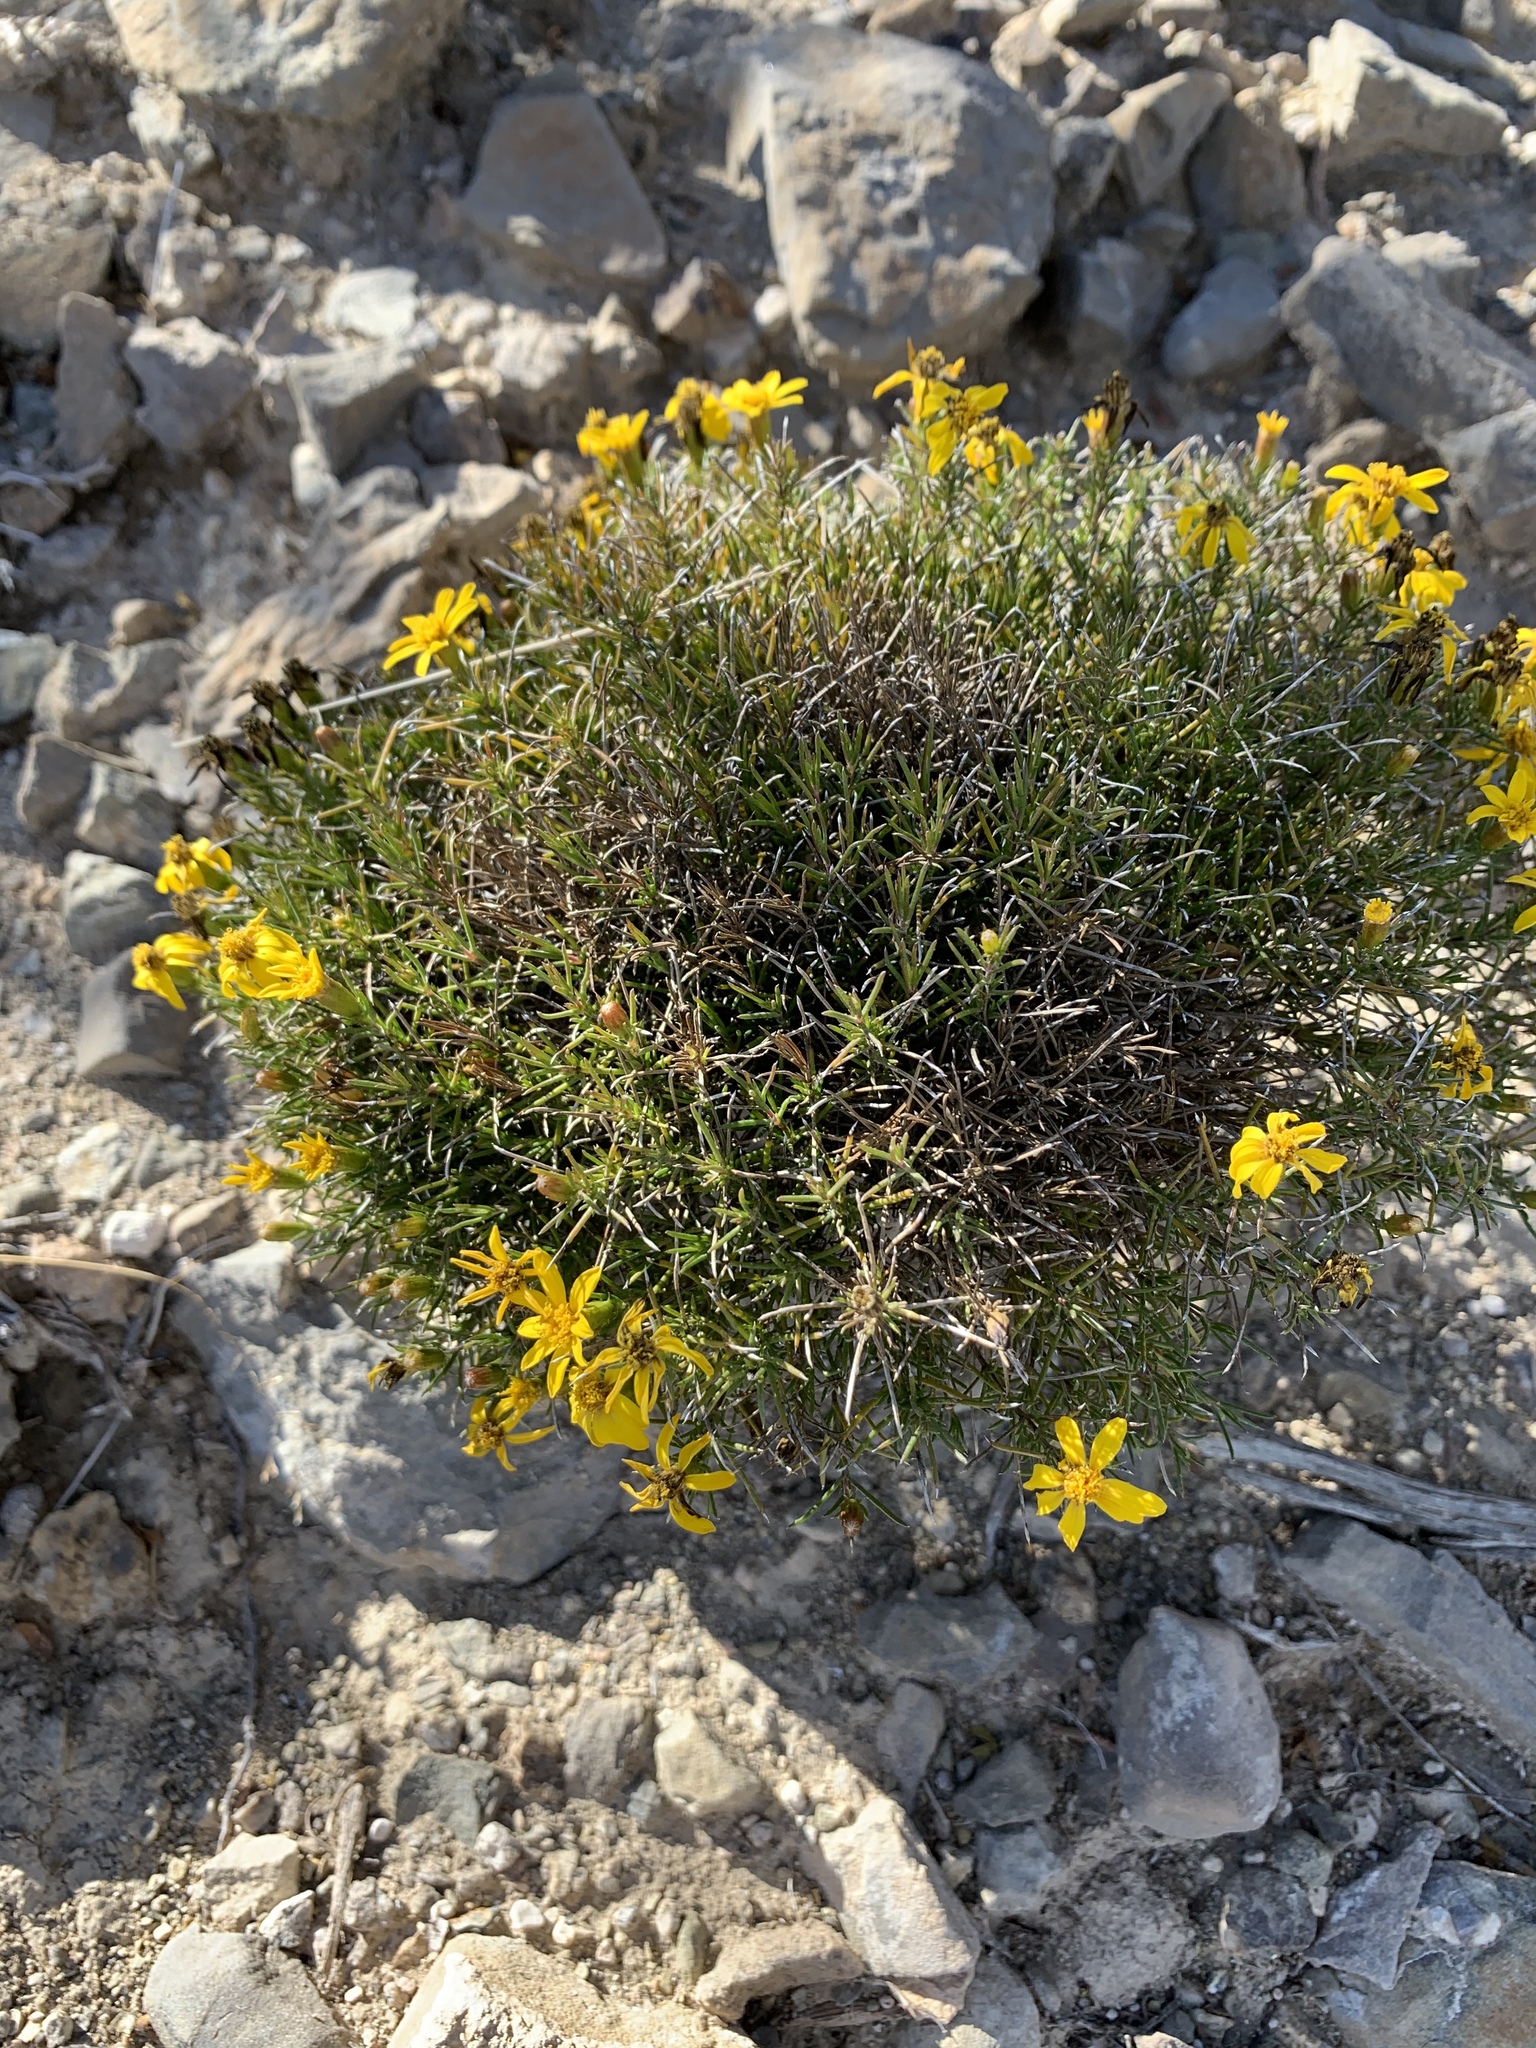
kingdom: Plantae
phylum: Tracheophyta
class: Magnoliopsida
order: Asterales
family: Asteraceae
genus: Thymophylla
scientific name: Thymophylla acerosa
